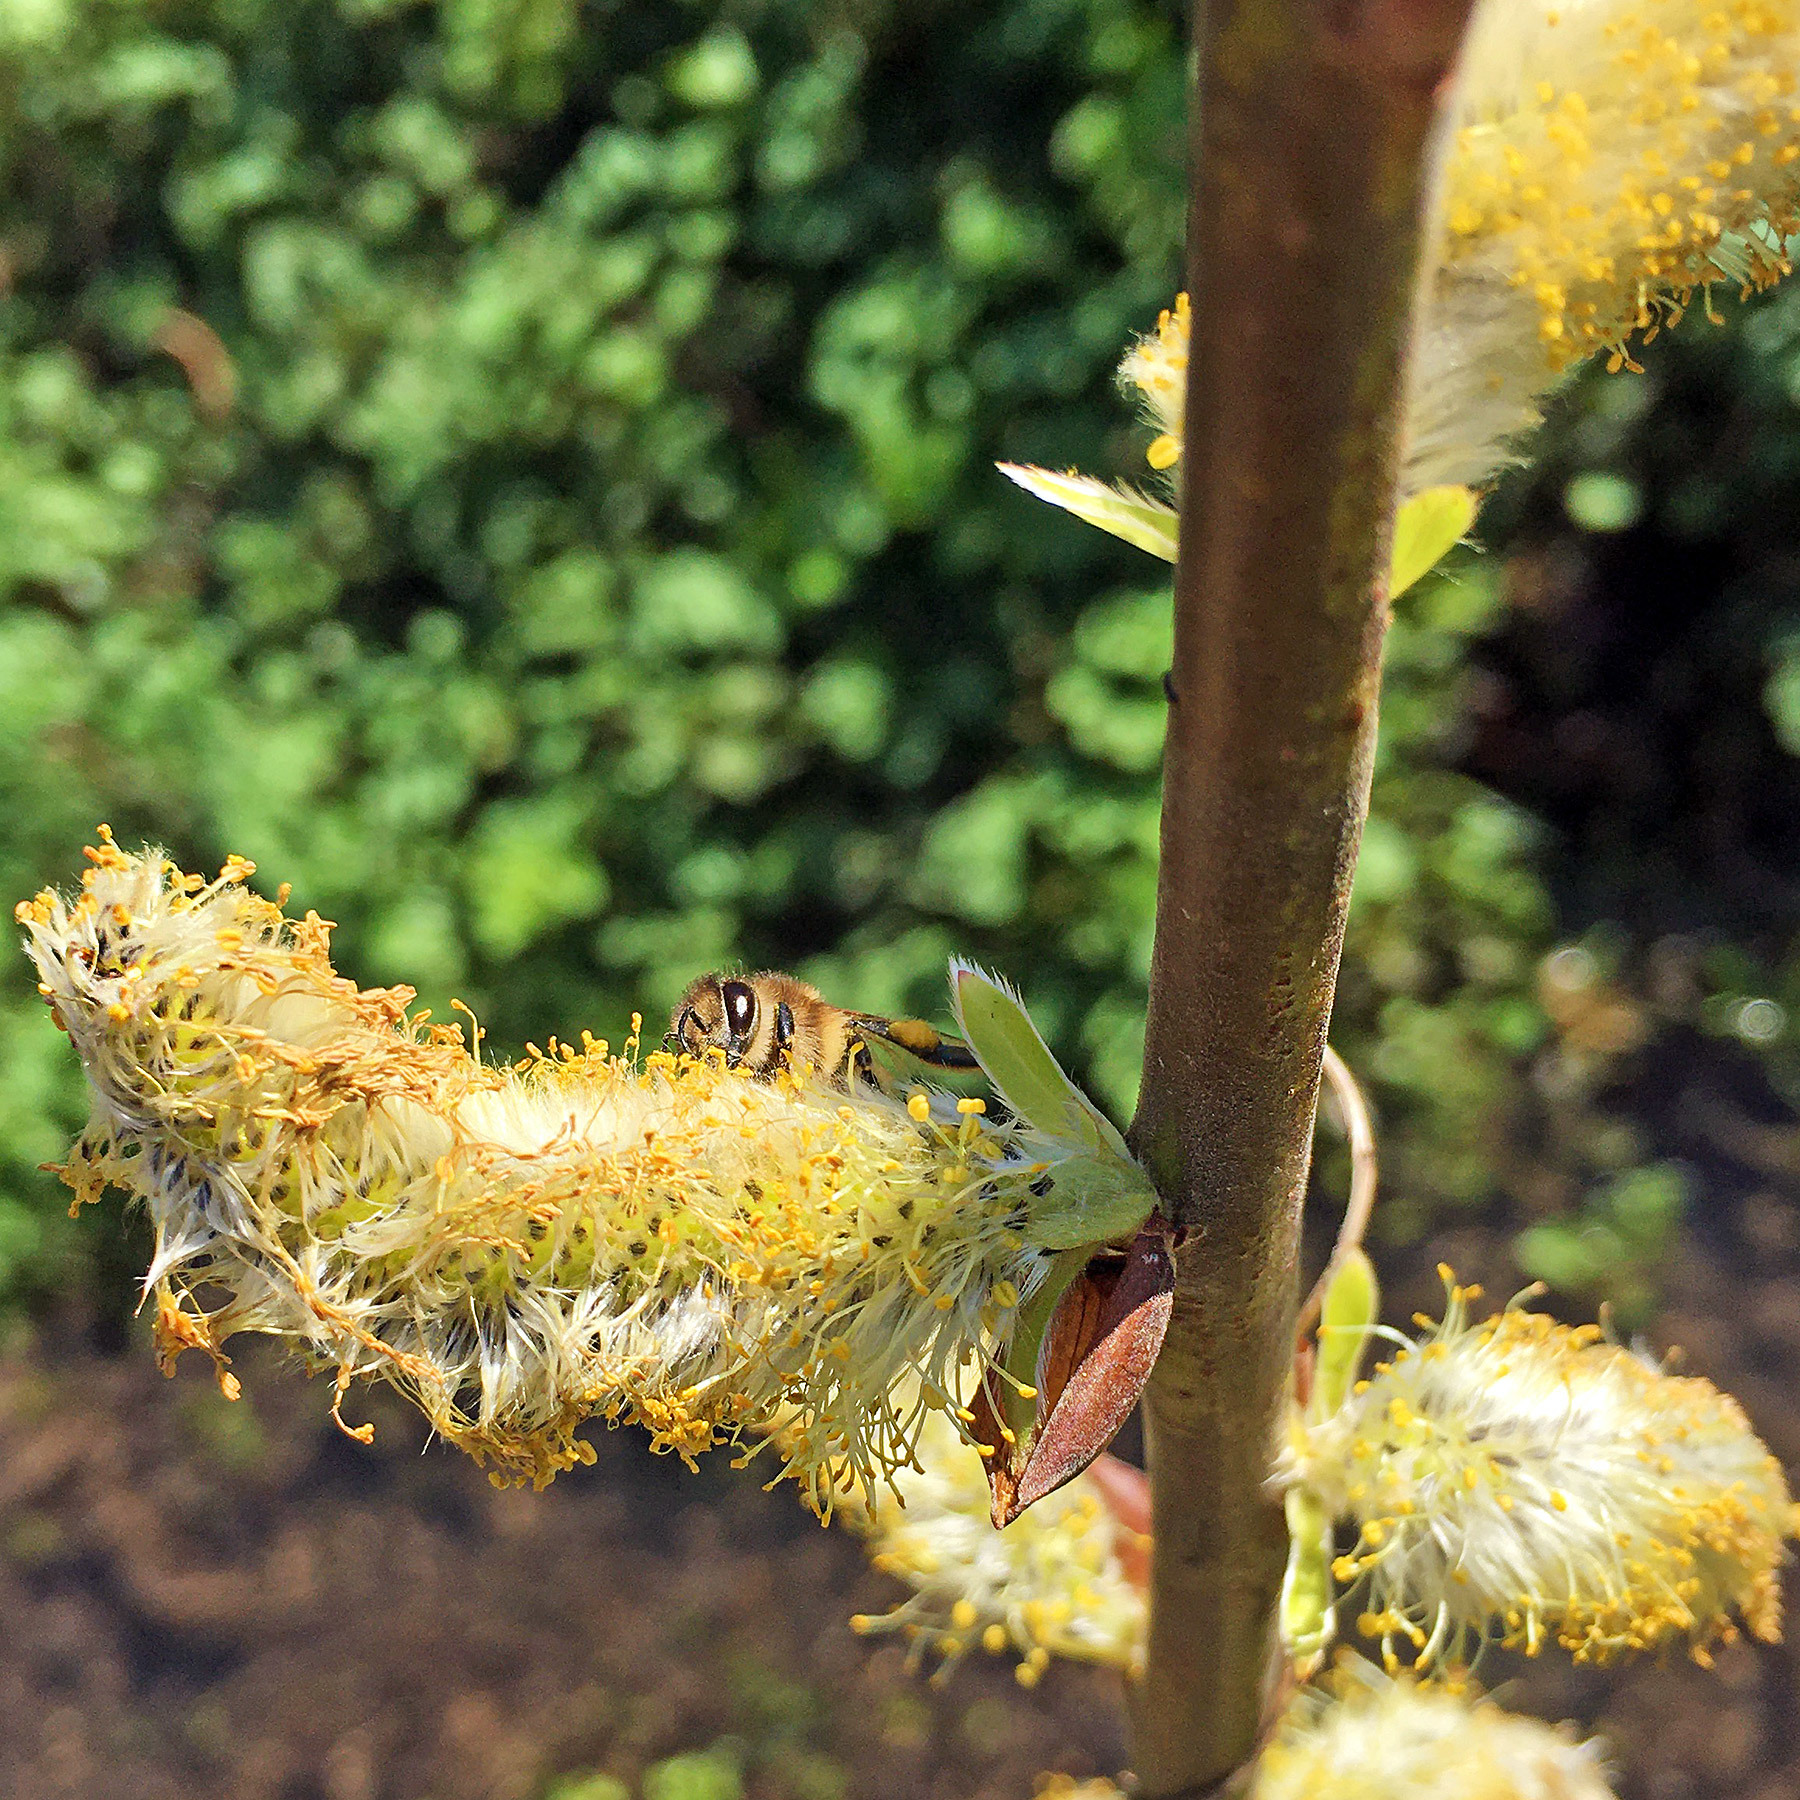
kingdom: Animalia
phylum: Arthropoda
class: Insecta
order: Hymenoptera
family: Apidae
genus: Apis
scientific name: Apis mellifera
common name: Honey bee
